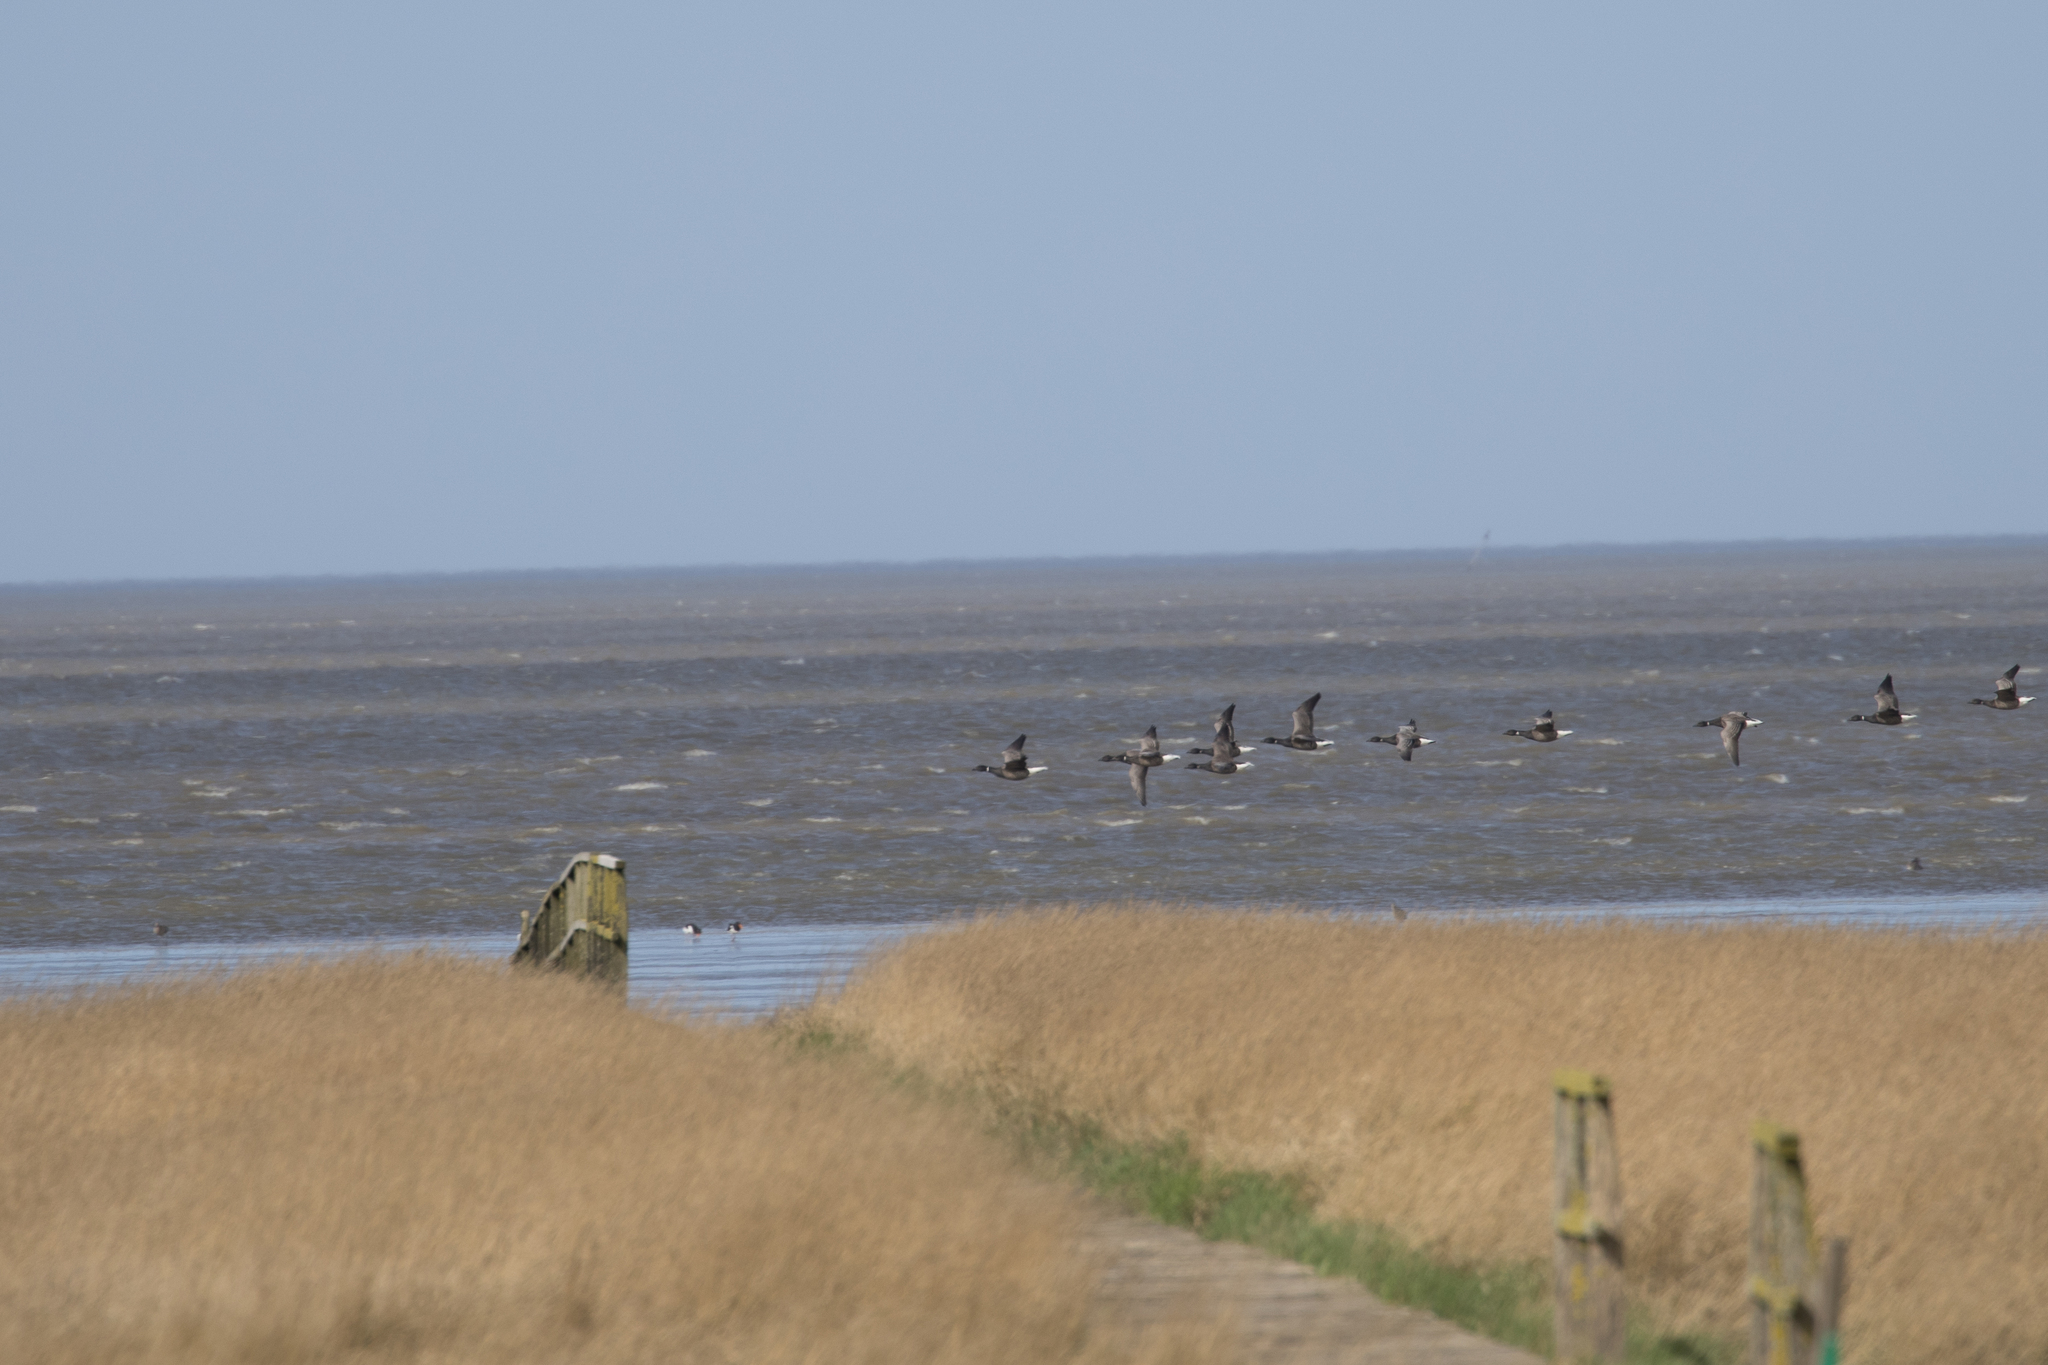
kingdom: Animalia
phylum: Chordata
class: Aves
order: Anseriformes
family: Anatidae
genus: Branta
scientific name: Branta bernicla
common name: Brant goose
